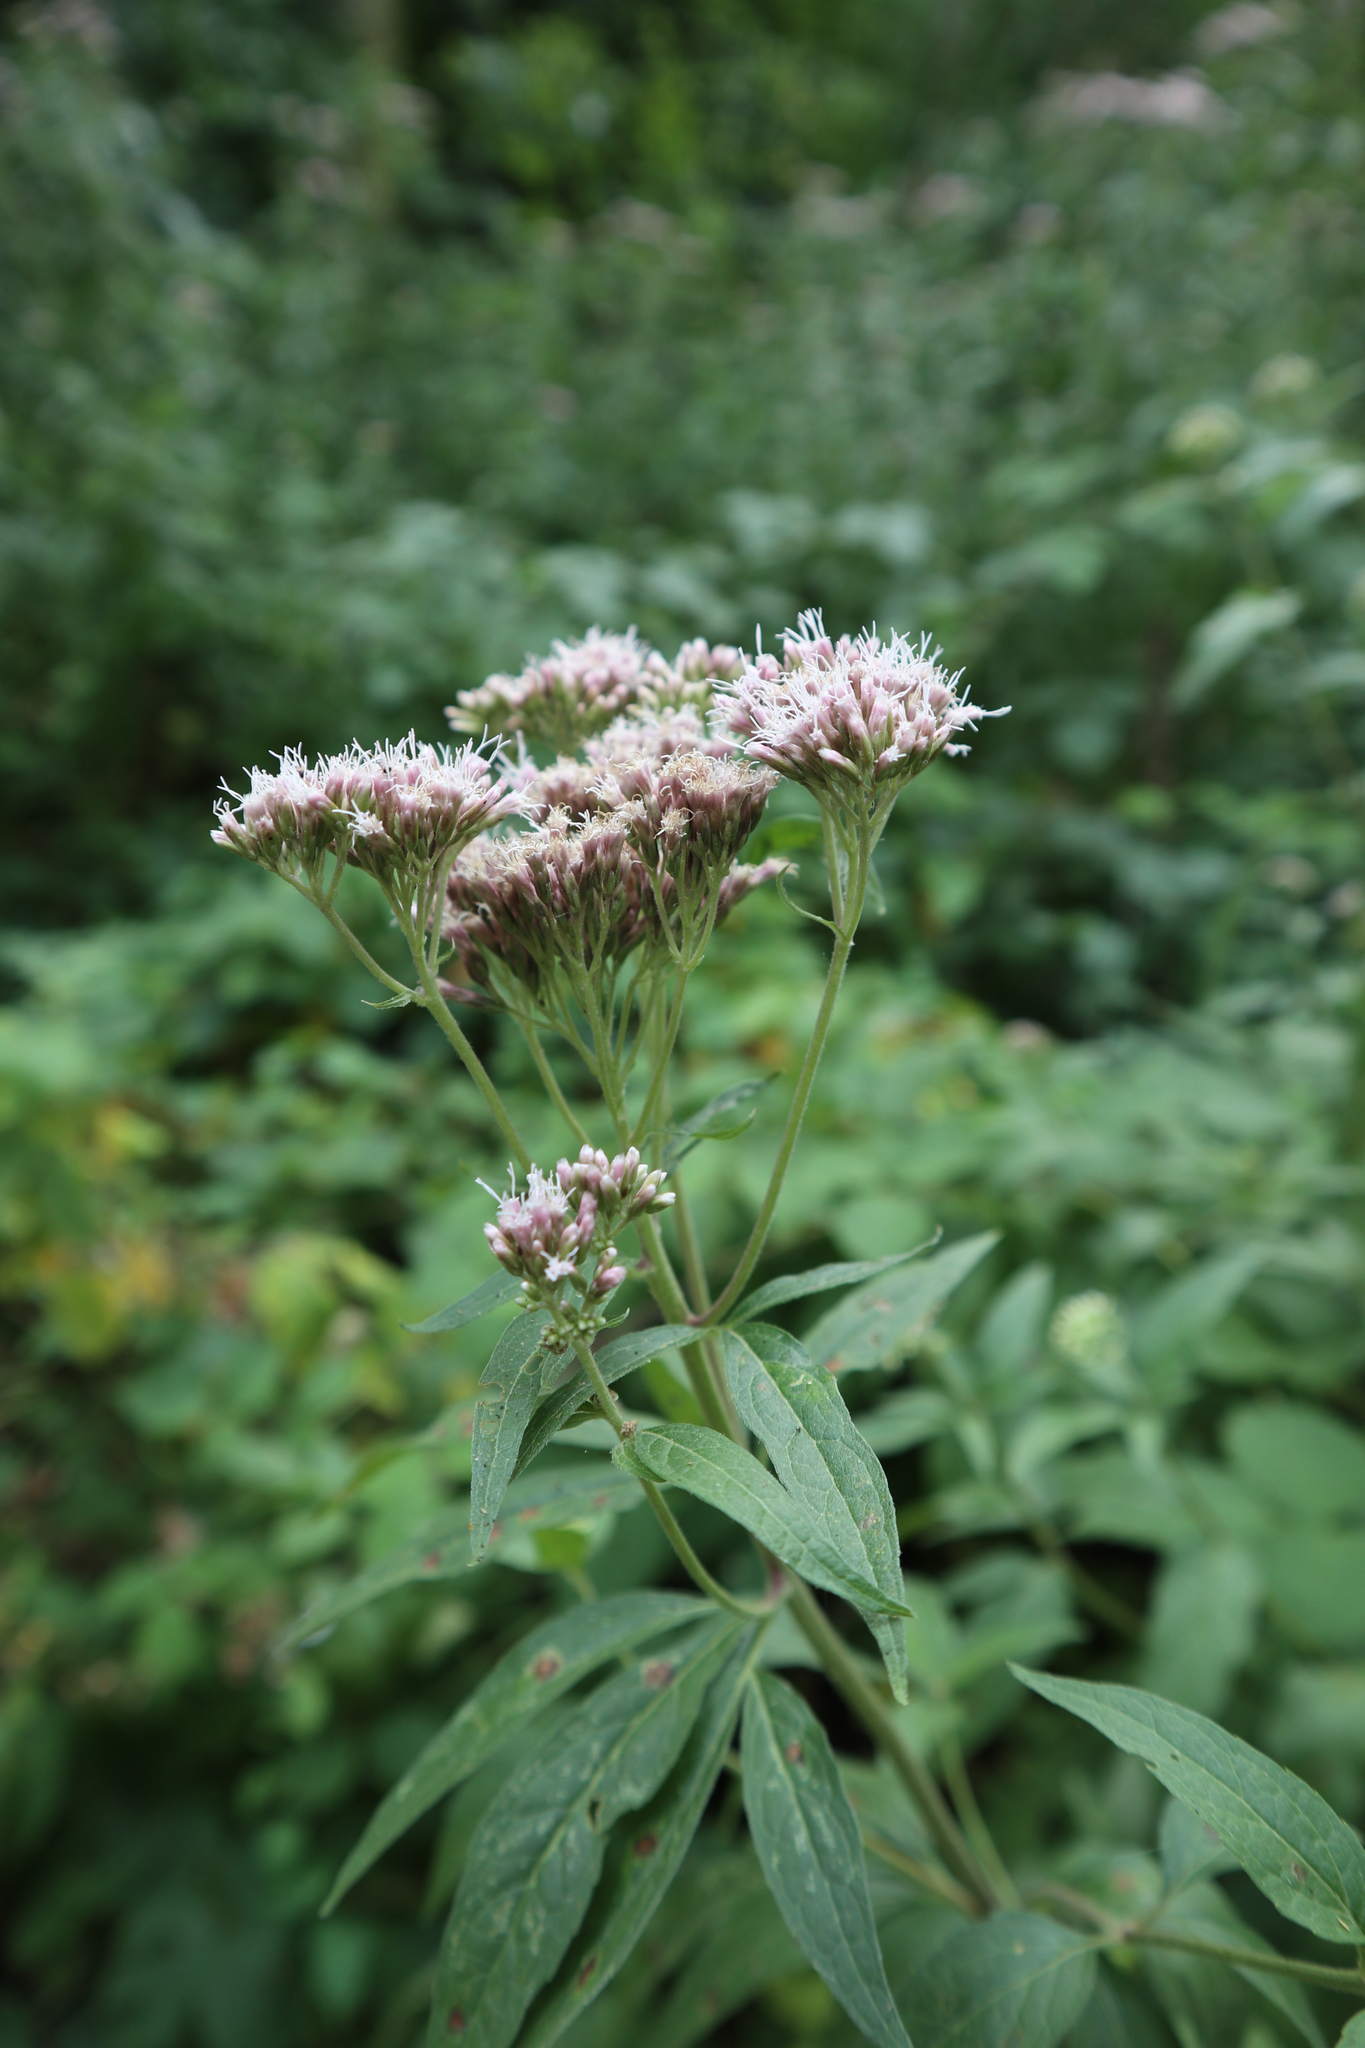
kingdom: Plantae
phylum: Tracheophyta
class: Magnoliopsida
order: Asterales
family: Asteraceae
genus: Eupatorium
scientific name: Eupatorium cannabinum
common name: Hemp-agrimony
